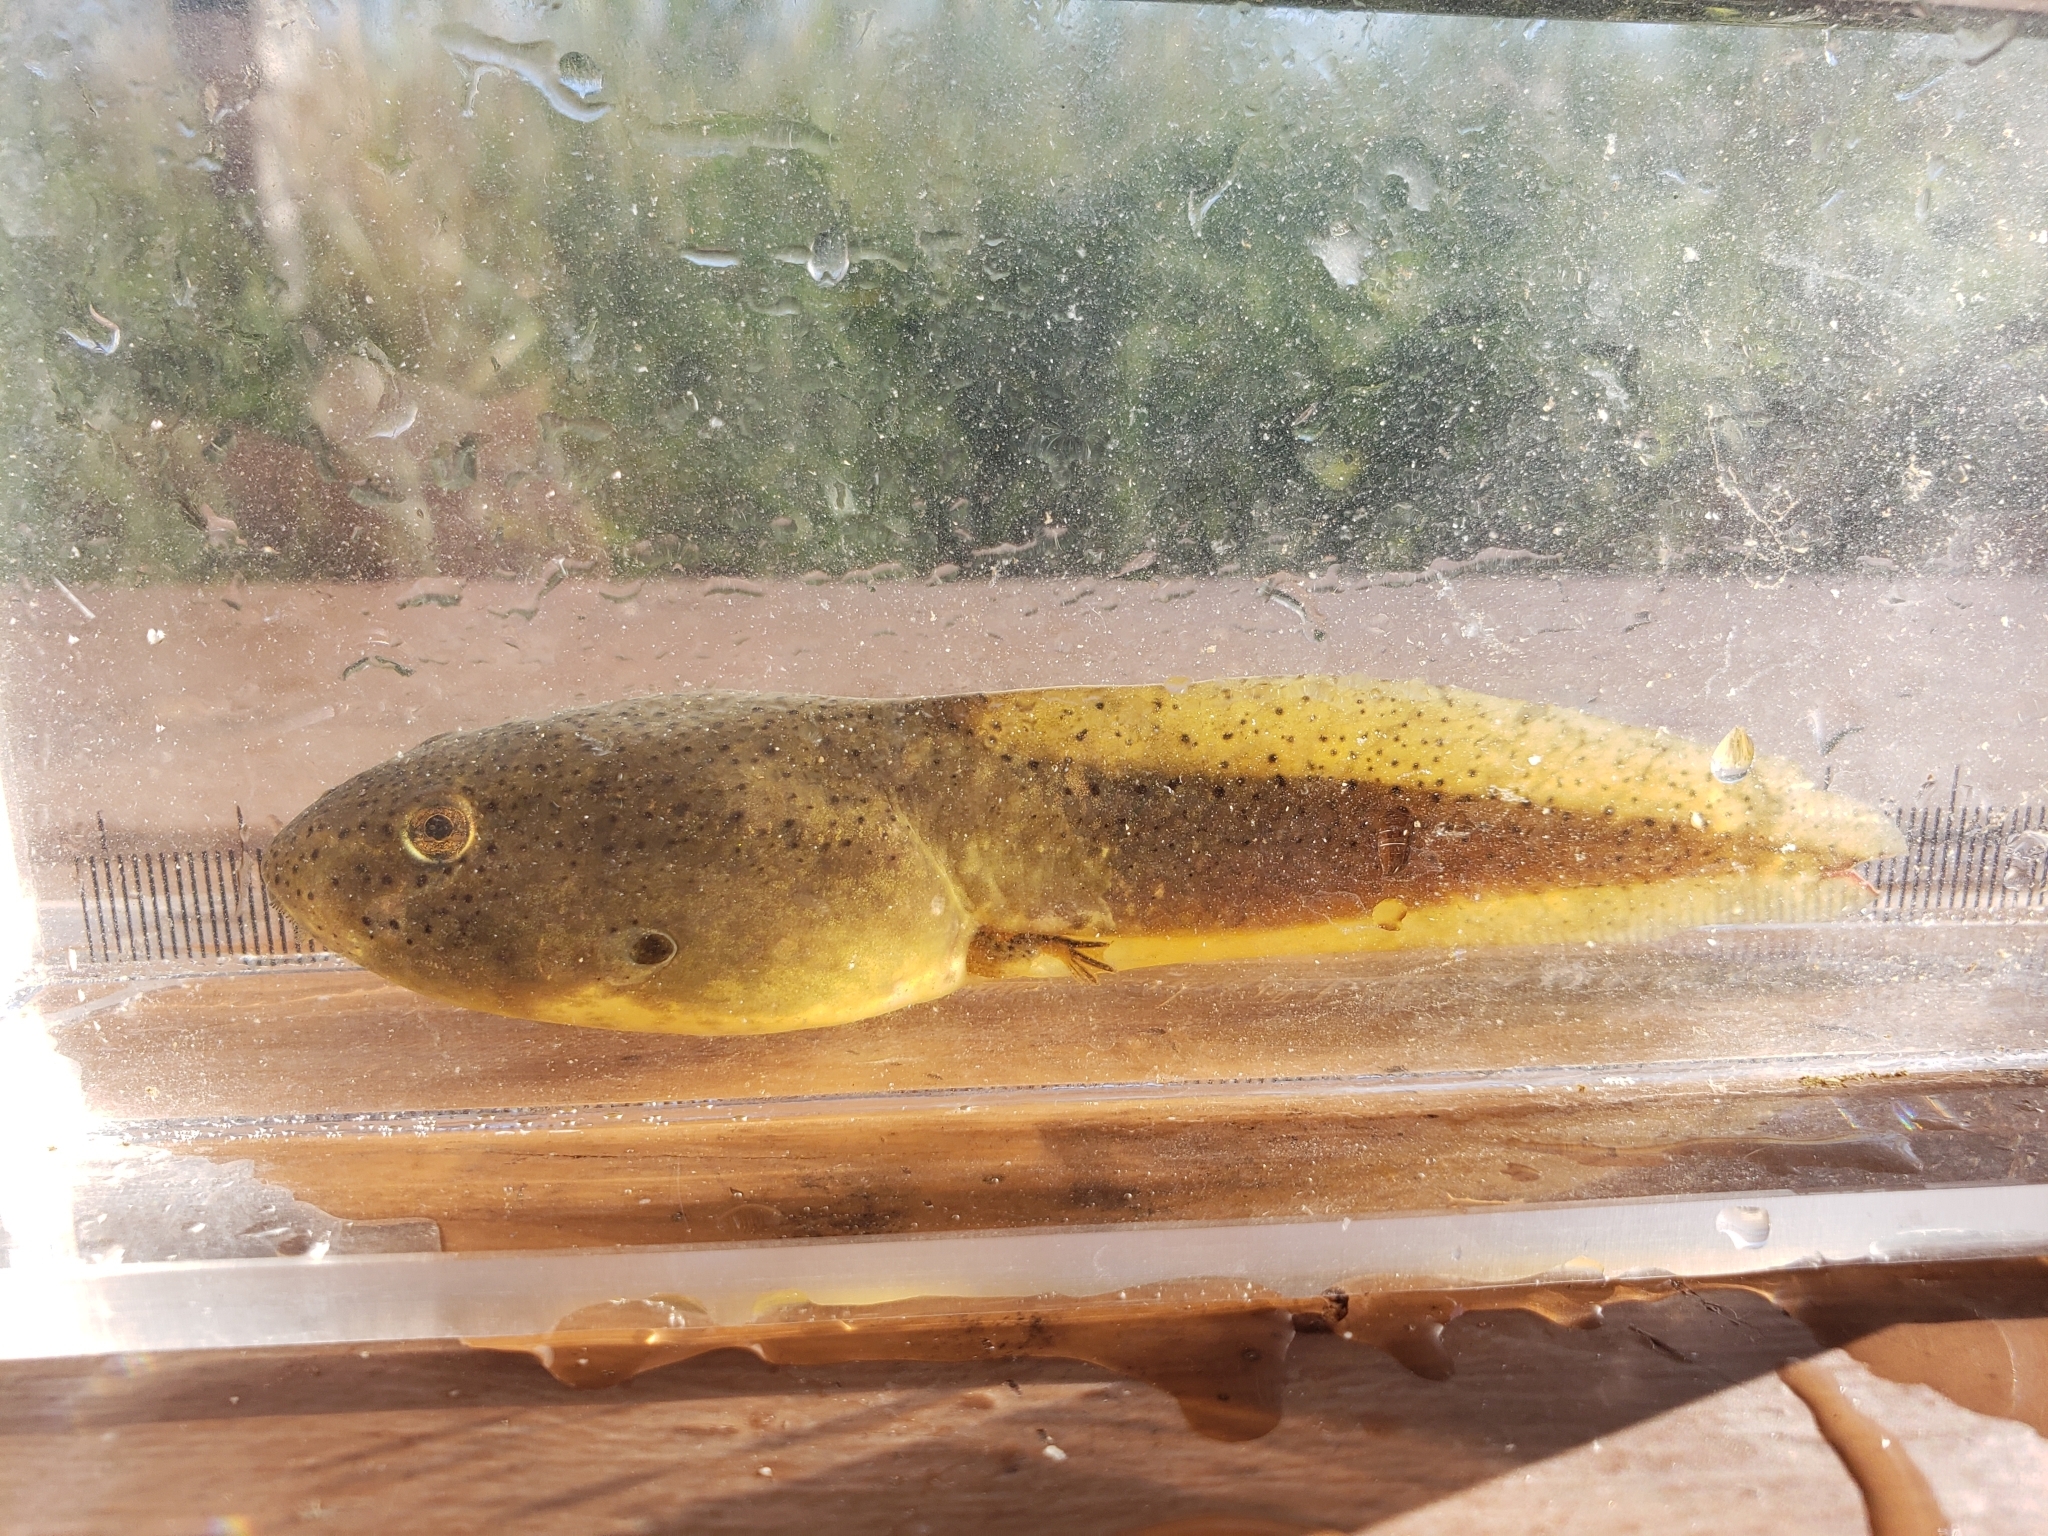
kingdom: Animalia
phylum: Chordata
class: Amphibia
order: Anura
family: Ranidae
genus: Lithobates
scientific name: Lithobates catesbeianus
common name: American bullfrog
